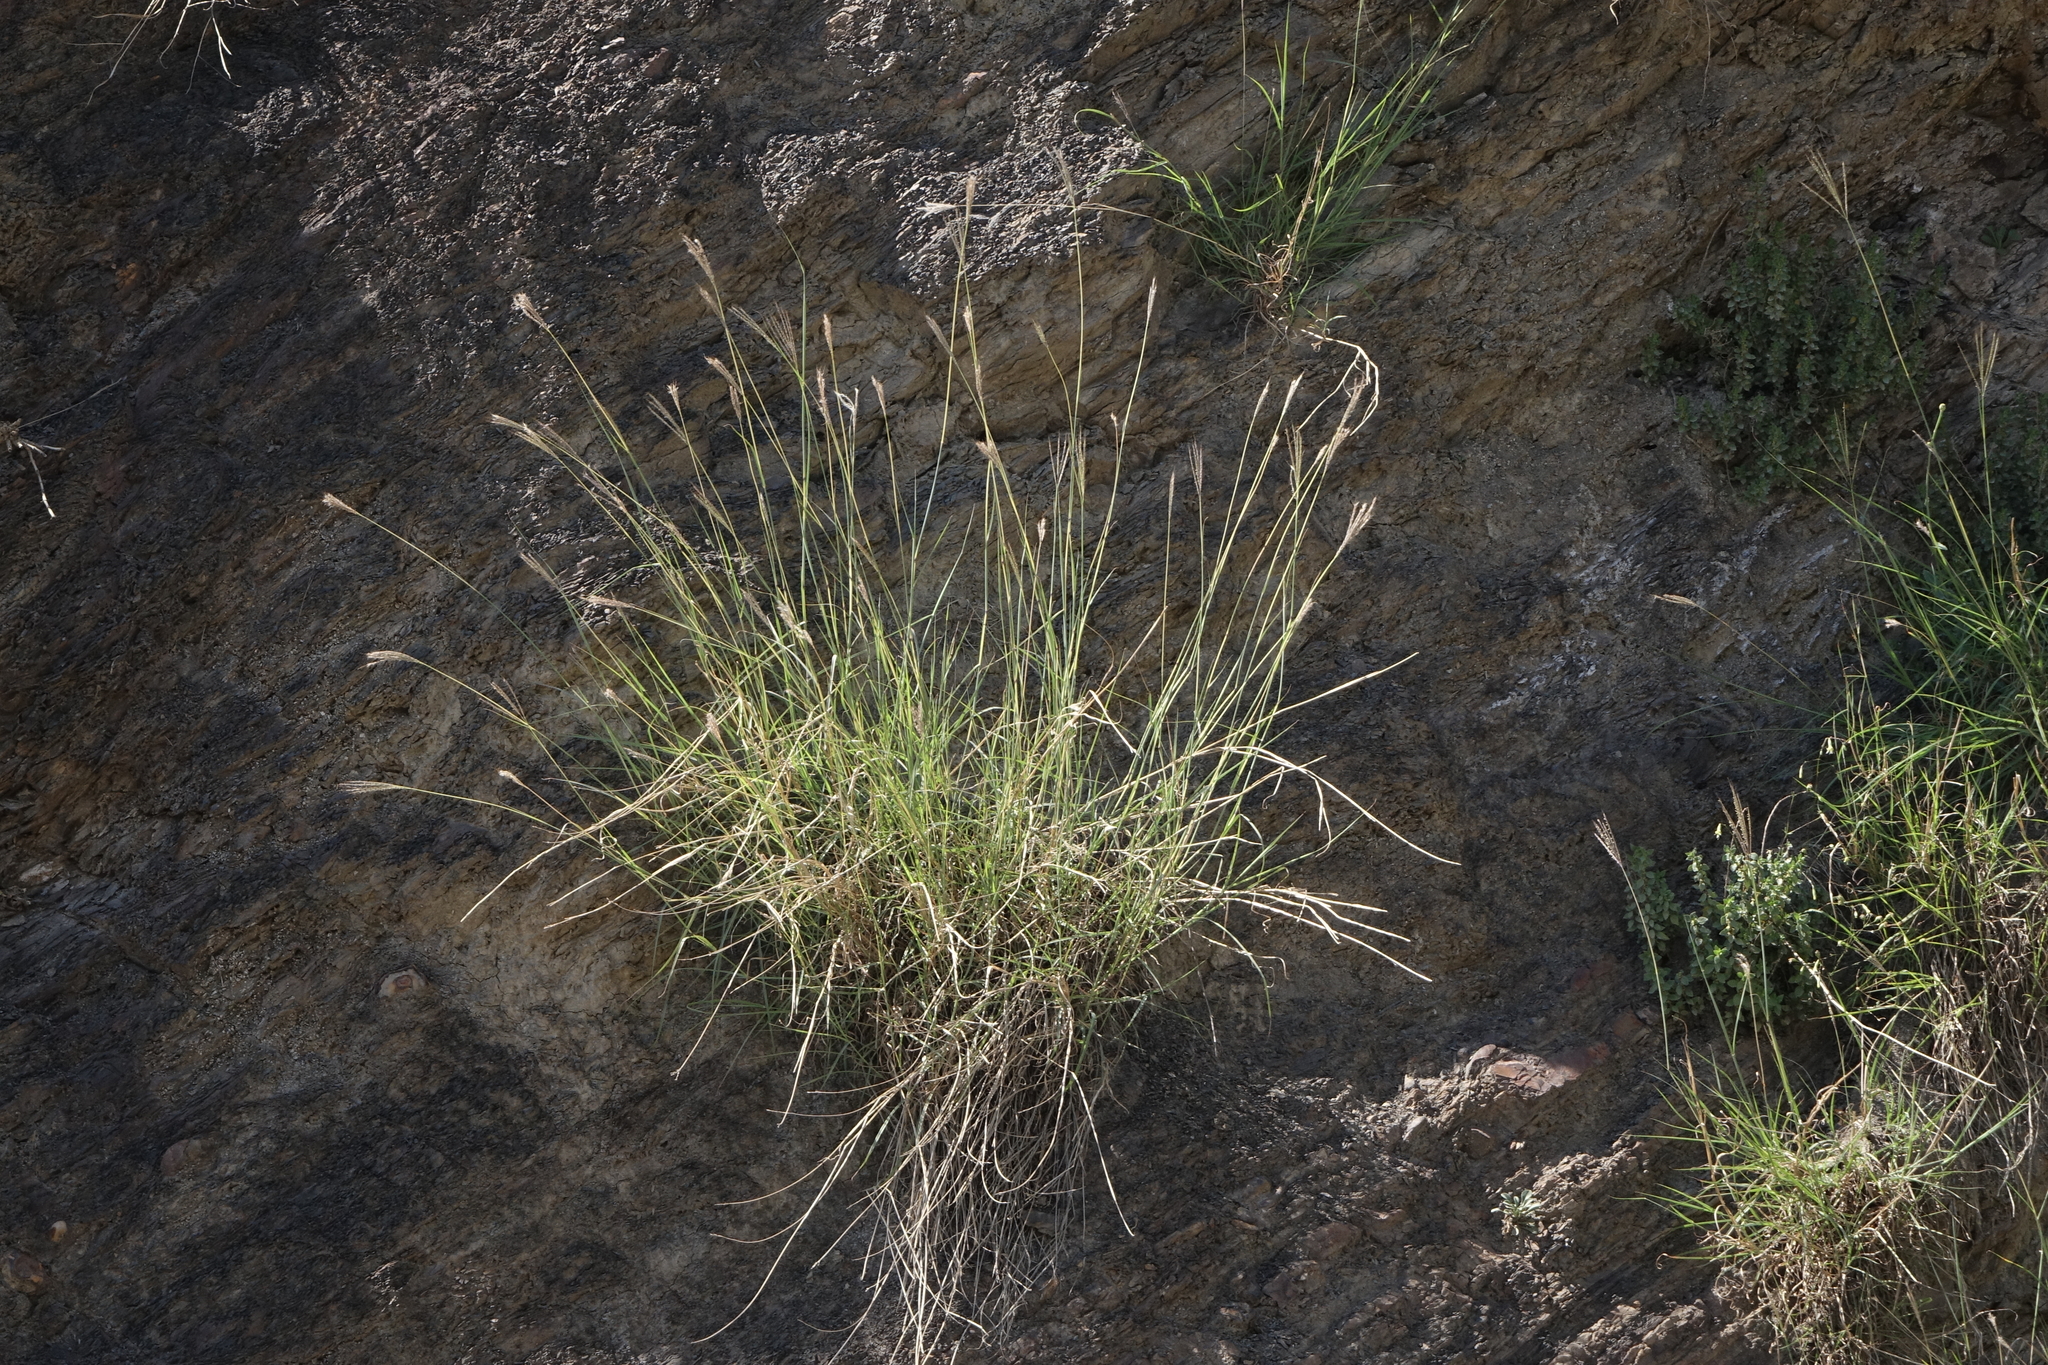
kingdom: Plantae
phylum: Tracheophyta
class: Liliopsida
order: Poales
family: Poaceae
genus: Bothriochloa
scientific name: Bothriochloa ischaemum
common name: Yellow bluestem
